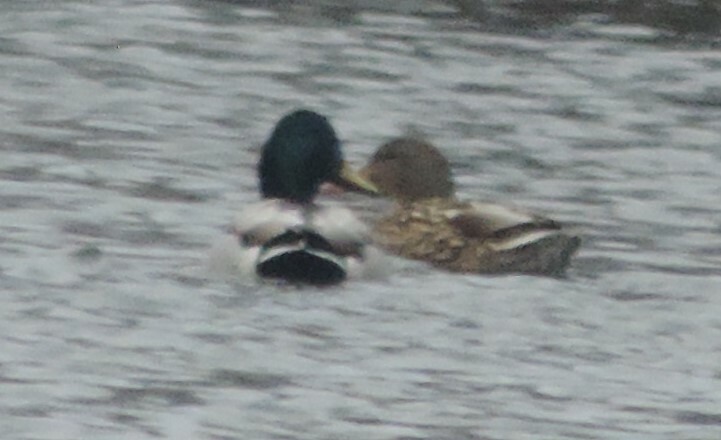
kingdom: Animalia
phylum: Chordata
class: Aves
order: Anseriformes
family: Anatidae
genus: Anas
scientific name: Anas platyrhynchos
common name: Mallard
